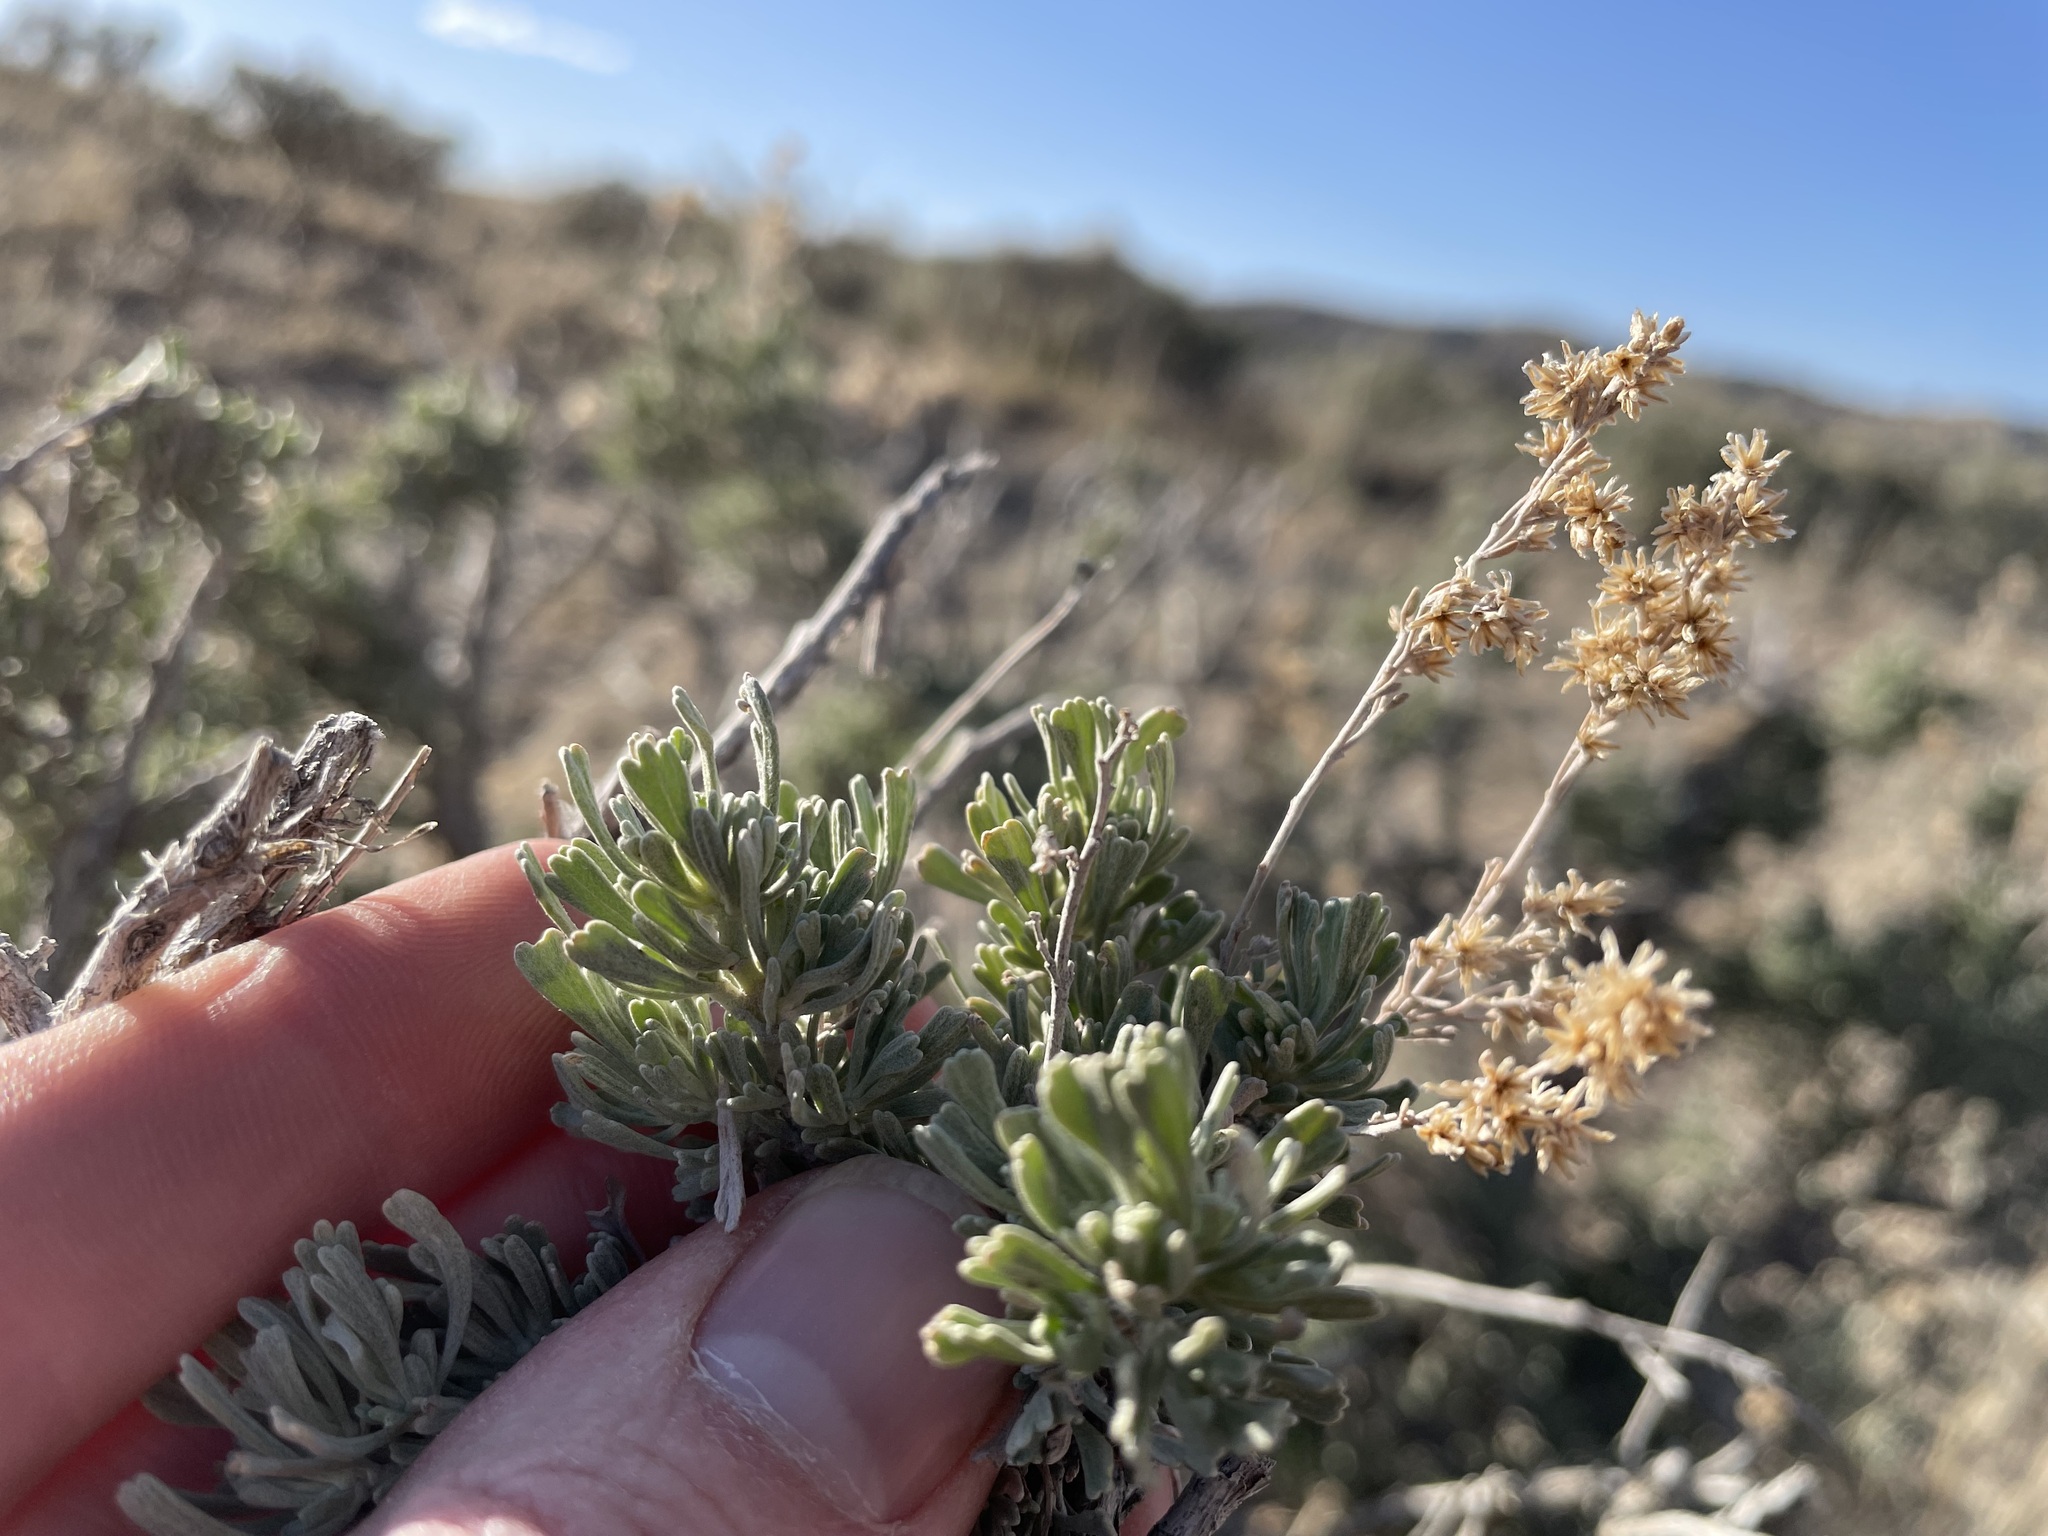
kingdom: Plantae
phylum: Tracheophyta
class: Magnoliopsida
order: Asterales
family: Asteraceae
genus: Artemisia
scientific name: Artemisia tridentata
